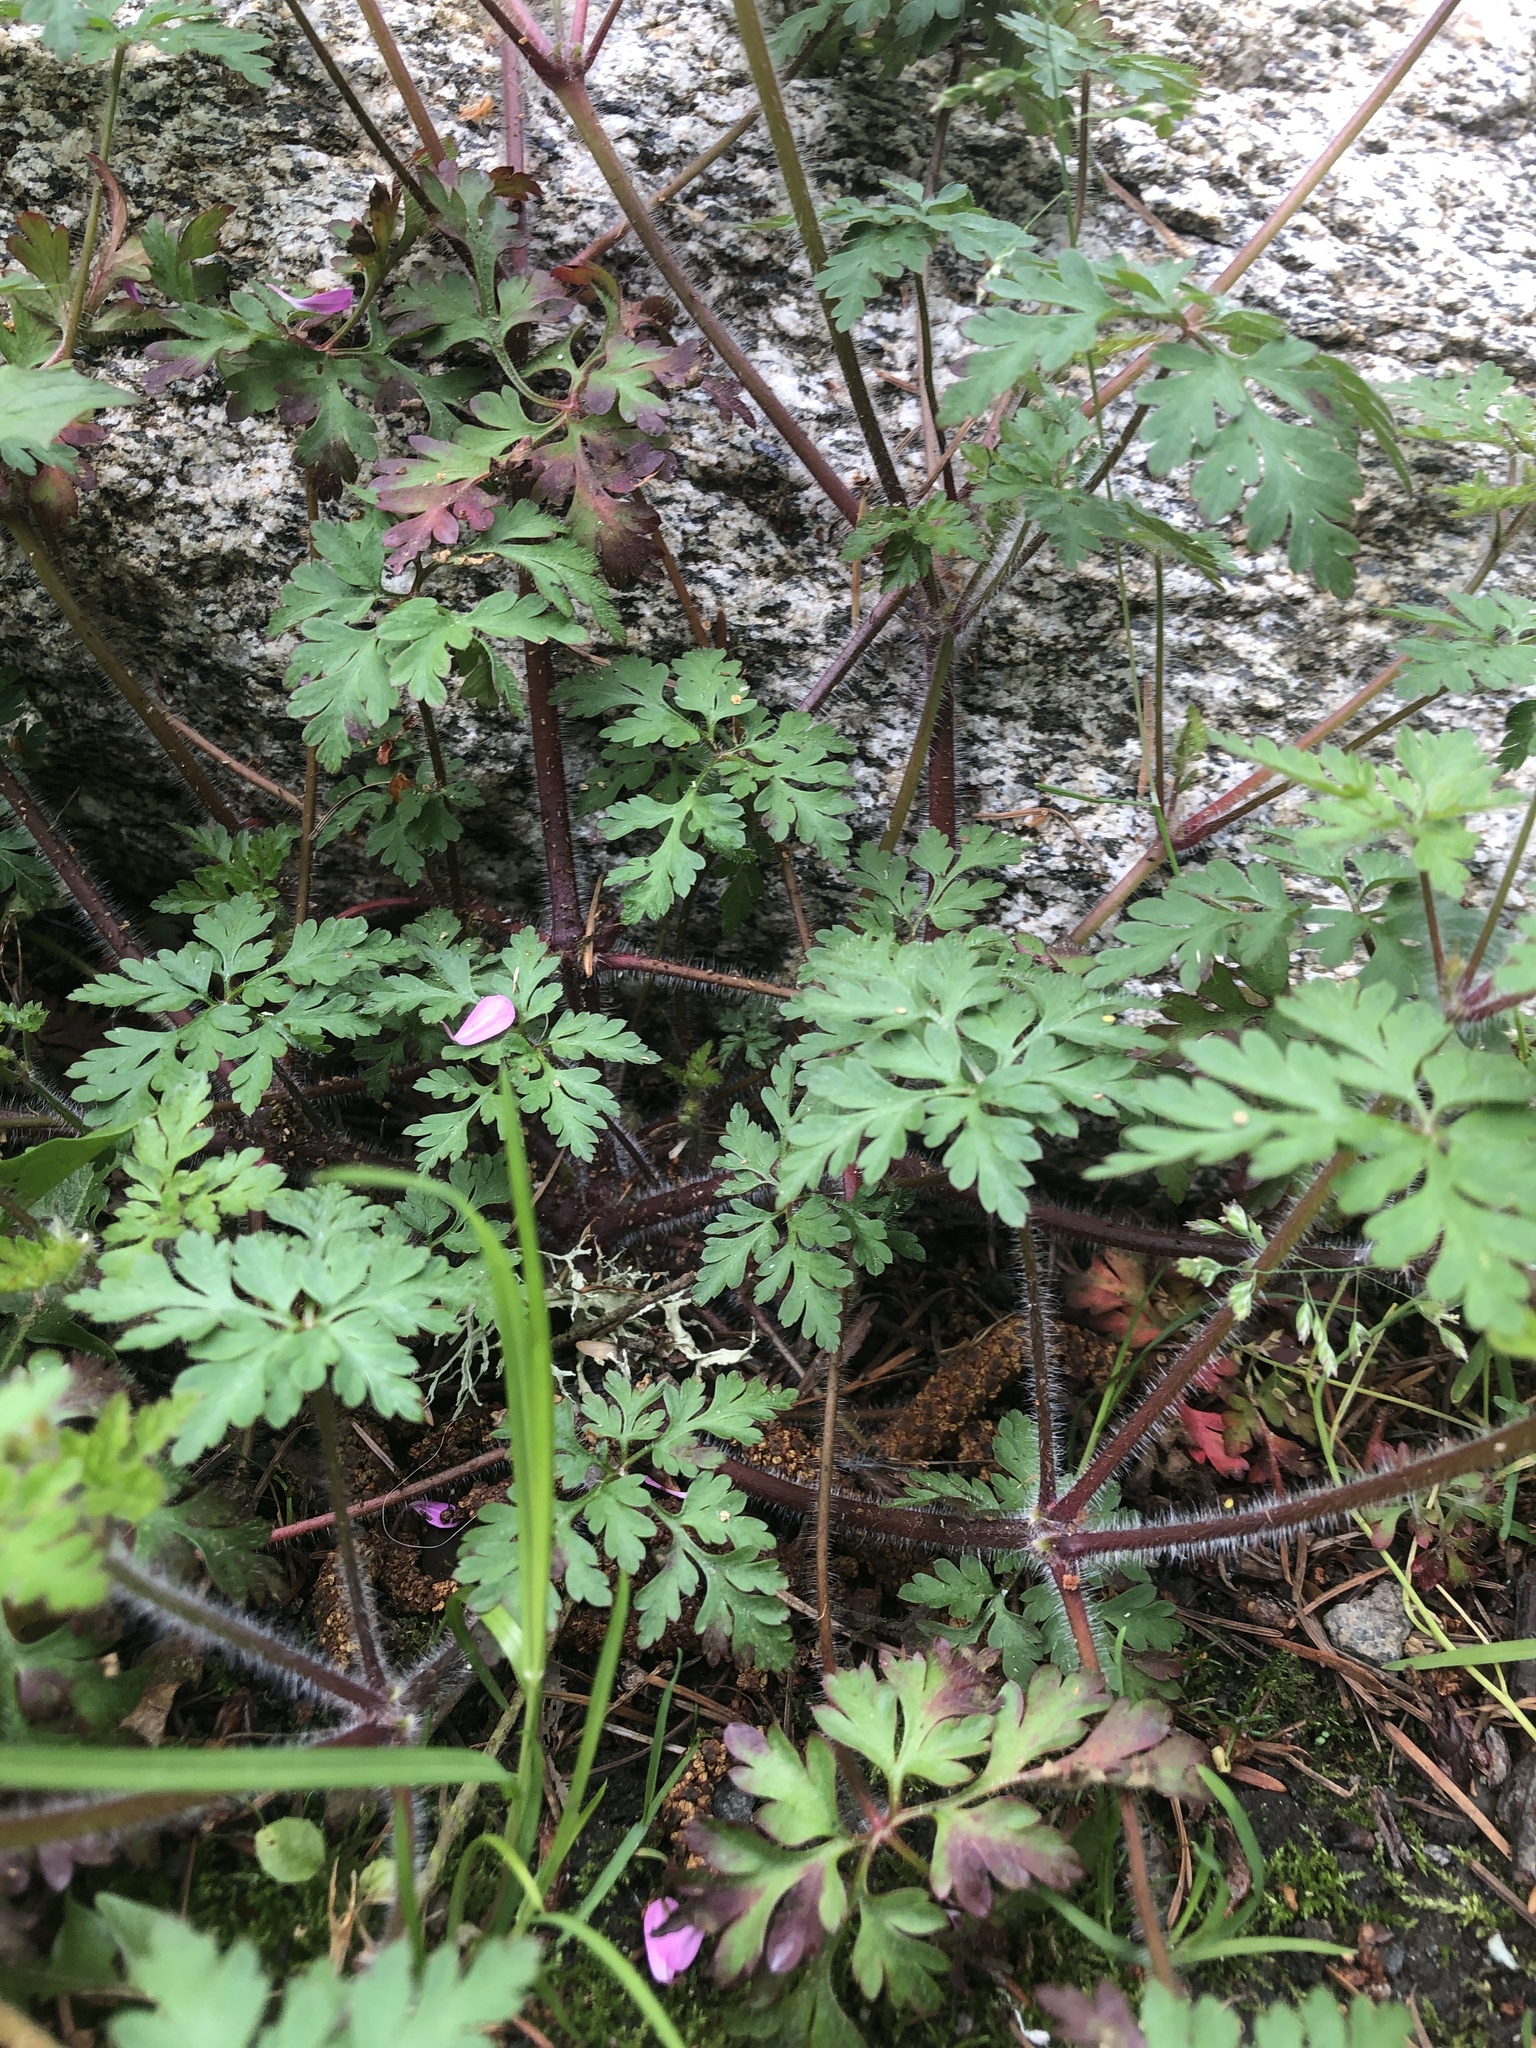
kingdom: Plantae
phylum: Tracheophyta
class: Magnoliopsida
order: Geraniales
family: Geraniaceae
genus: Geranium
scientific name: Geranium robertianum
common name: Herb-robert
